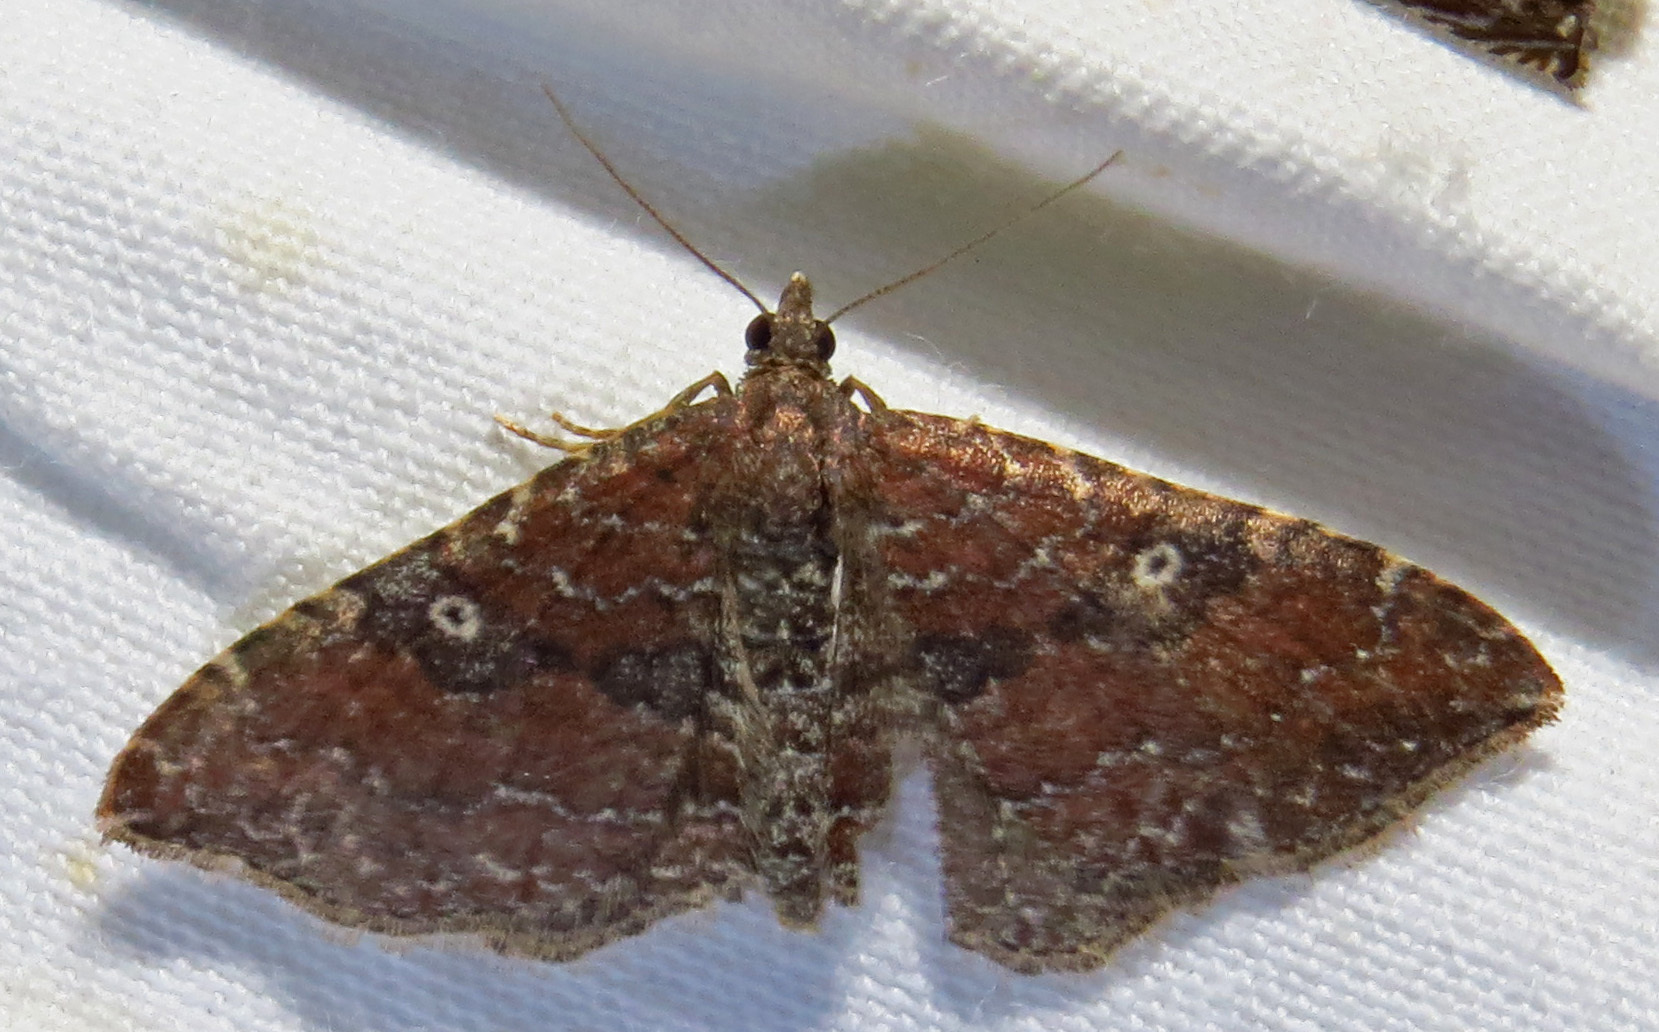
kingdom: Animalia
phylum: Arthropoda
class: Insecta
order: Lepidoptera
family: Geometridae
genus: Orthonama
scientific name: Orthonama obstipata
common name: The gem
